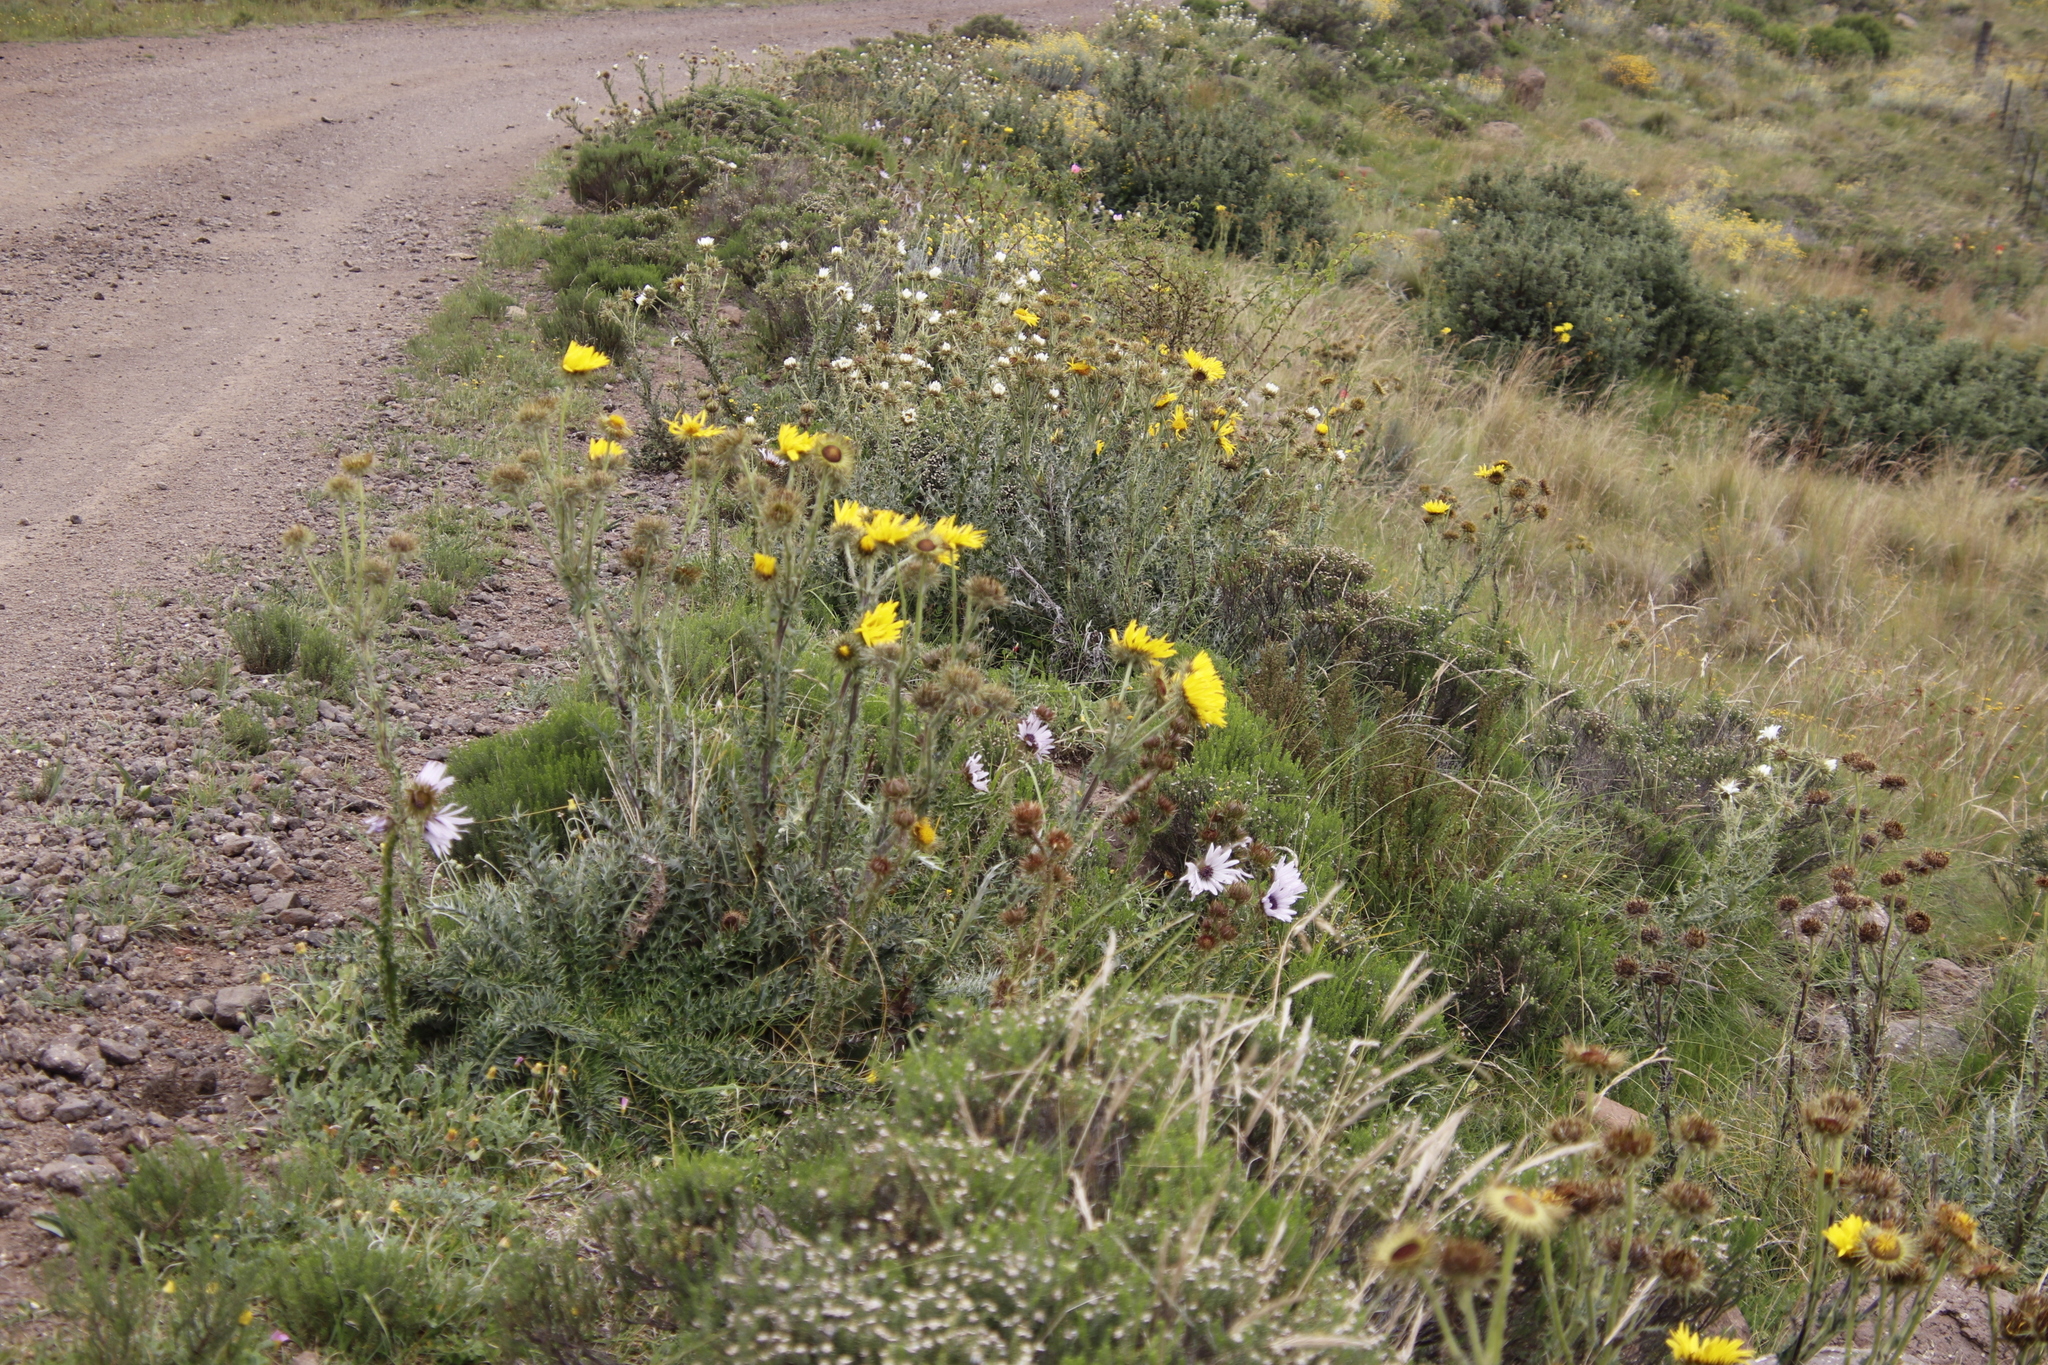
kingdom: Plantae
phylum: Tracheophyta
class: Magnoliopsida
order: Asterales
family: Asteraceae
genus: Berkheya
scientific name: Berkheya cirsiifolia
